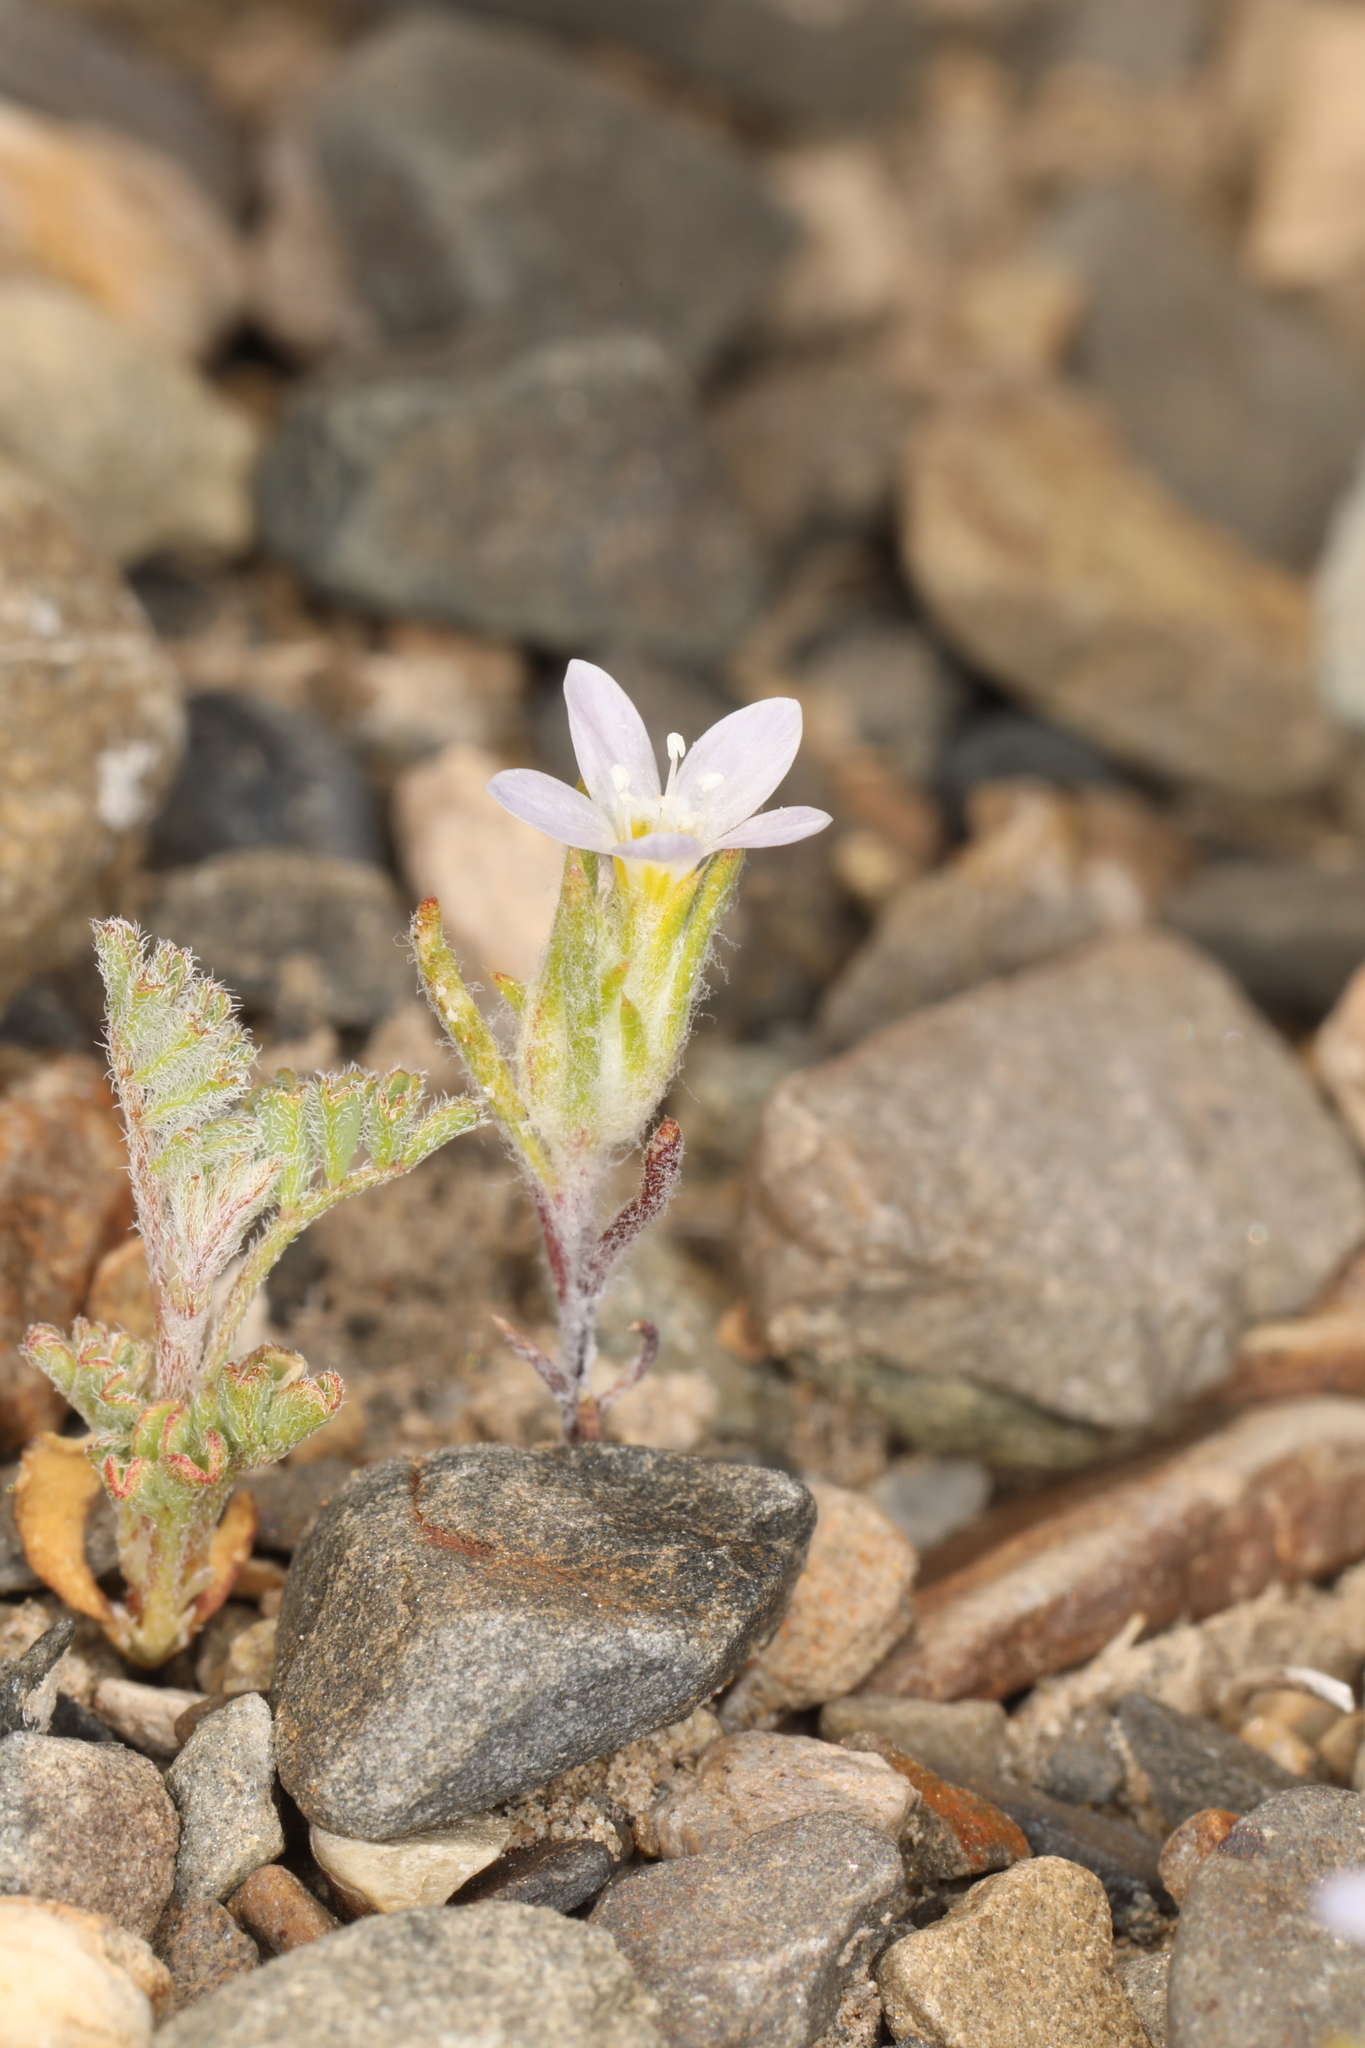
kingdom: Plantae
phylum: Tracheophyta
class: Magnoliopsida
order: Ericales
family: Polemoniaceae
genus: Eriastrum
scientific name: Eriastrum diffusum
